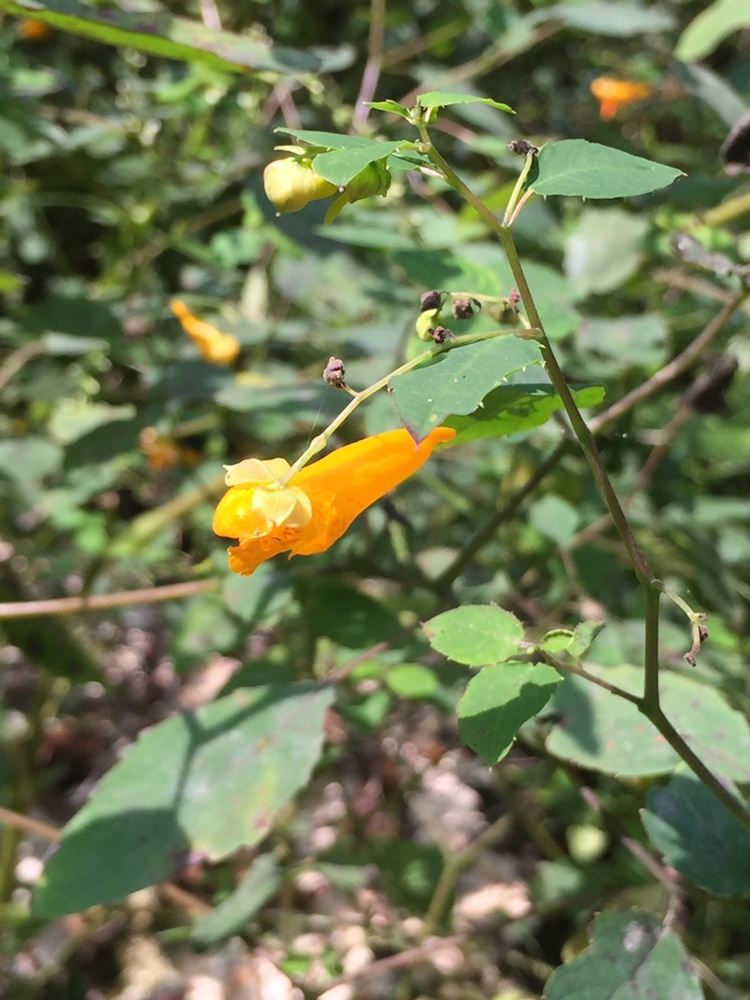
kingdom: Plantae
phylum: Tracheophyta
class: Magnoliopsida
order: Ericales
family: Balsaminaceae
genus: Impatiens
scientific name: Impatiens capensis
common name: Orange balsam
